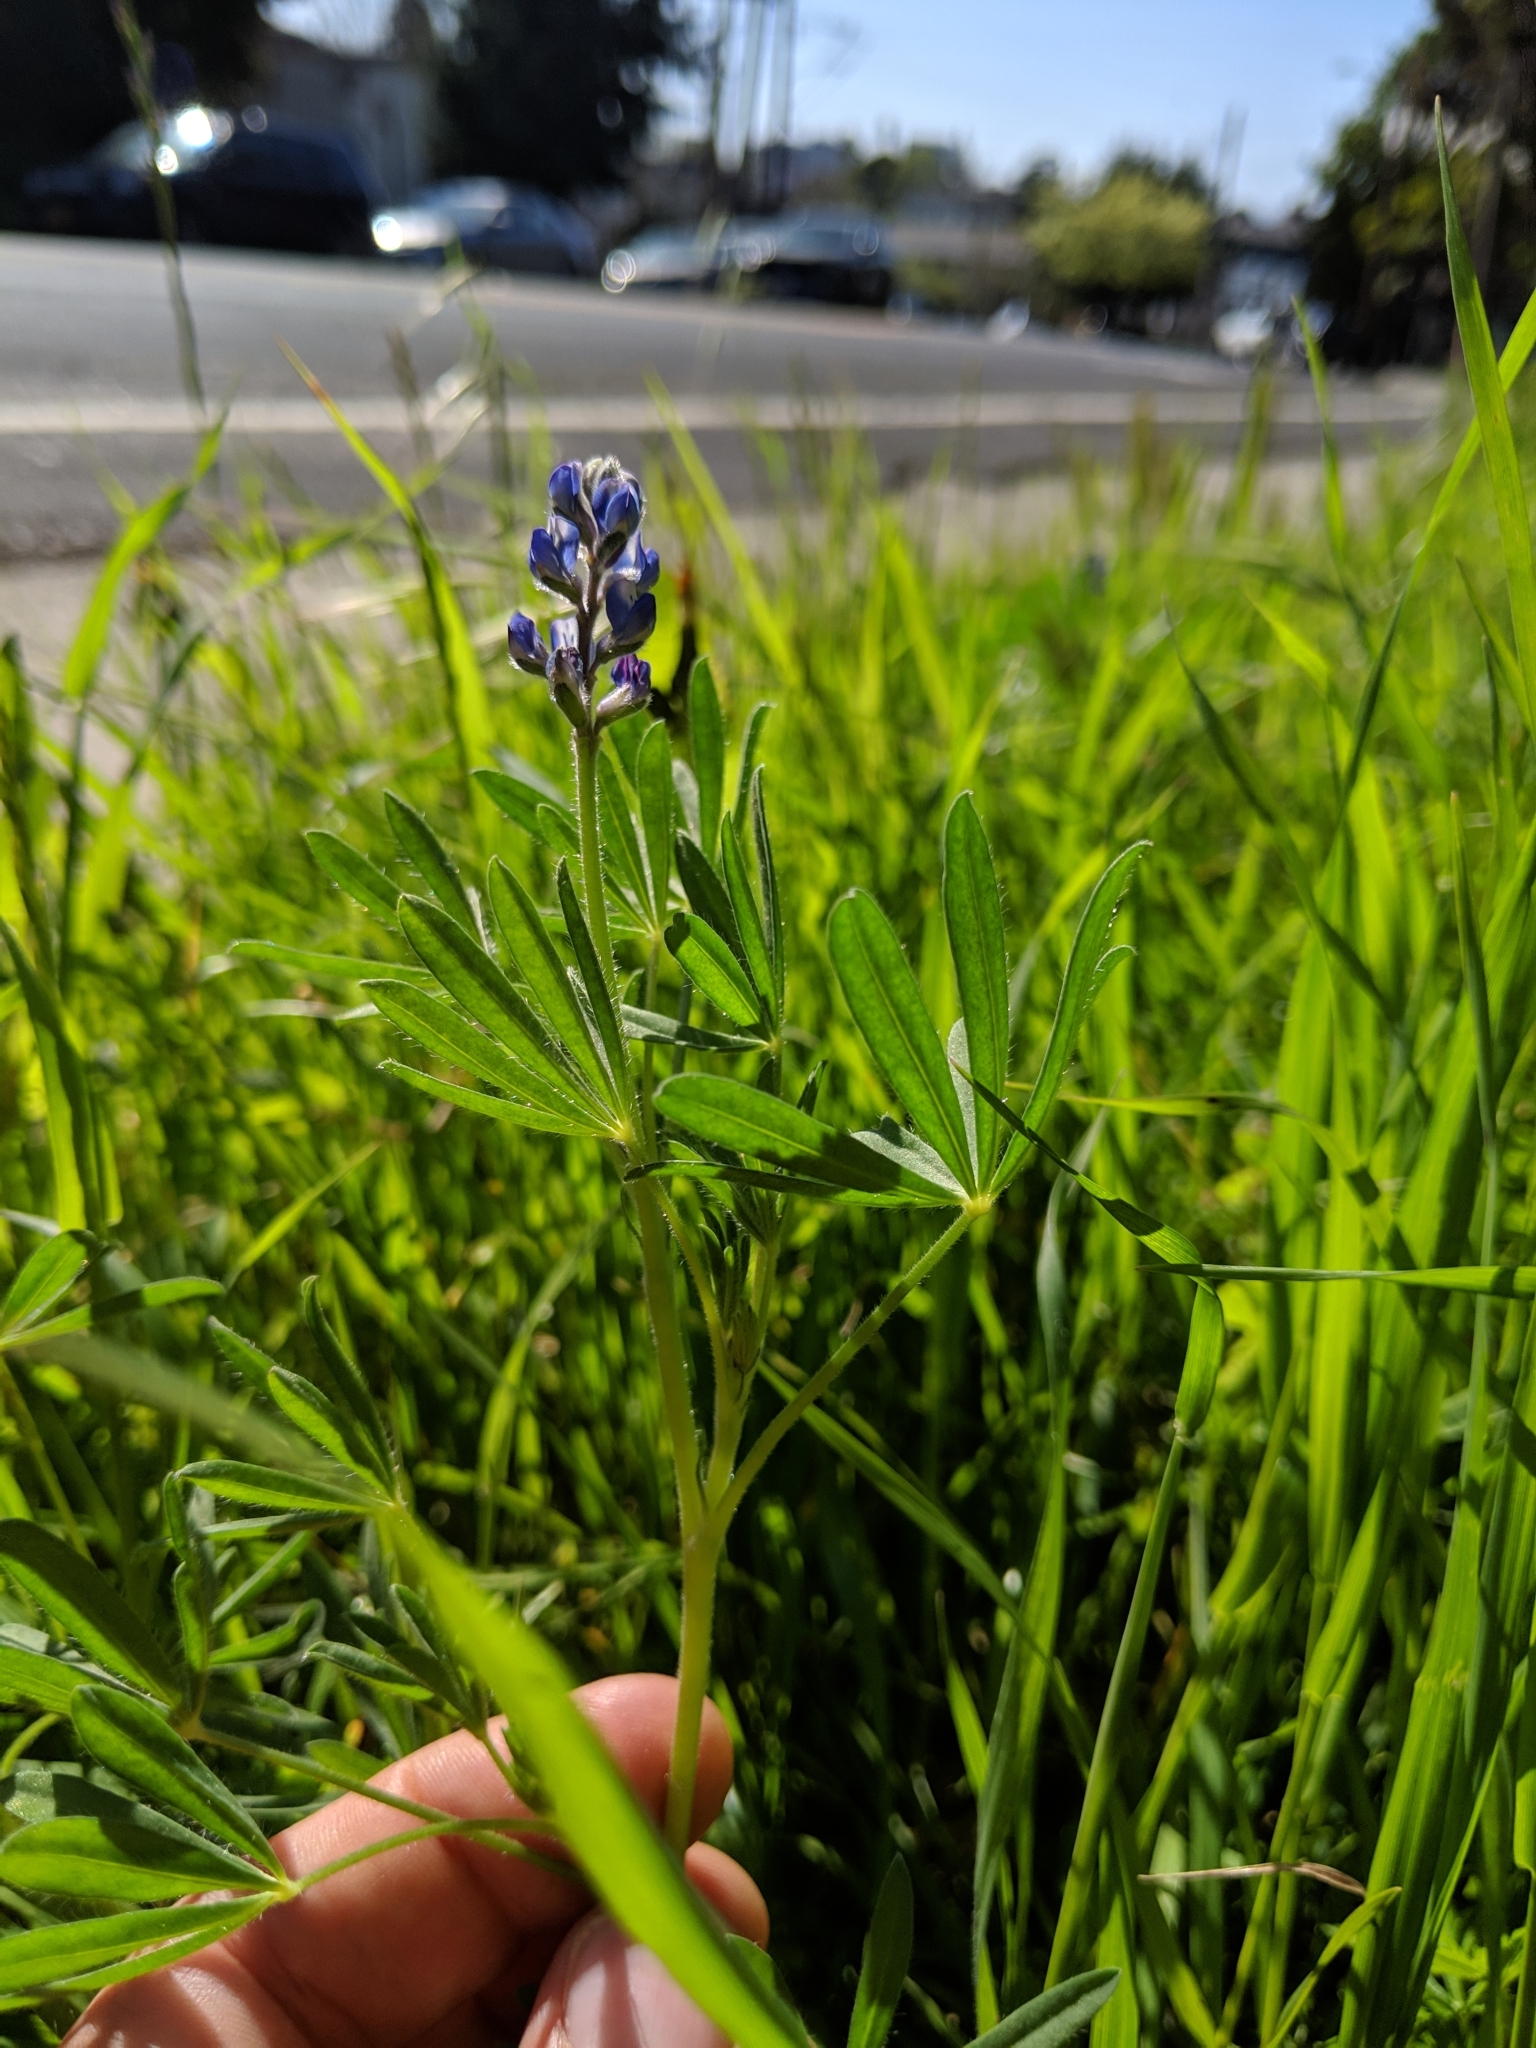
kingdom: Plantae
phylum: Tracheophyta
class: Magnoliopsida
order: Fabales
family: Fabaceae
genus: Lupinus
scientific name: Lupinus bicolor
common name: Miniature lupine
